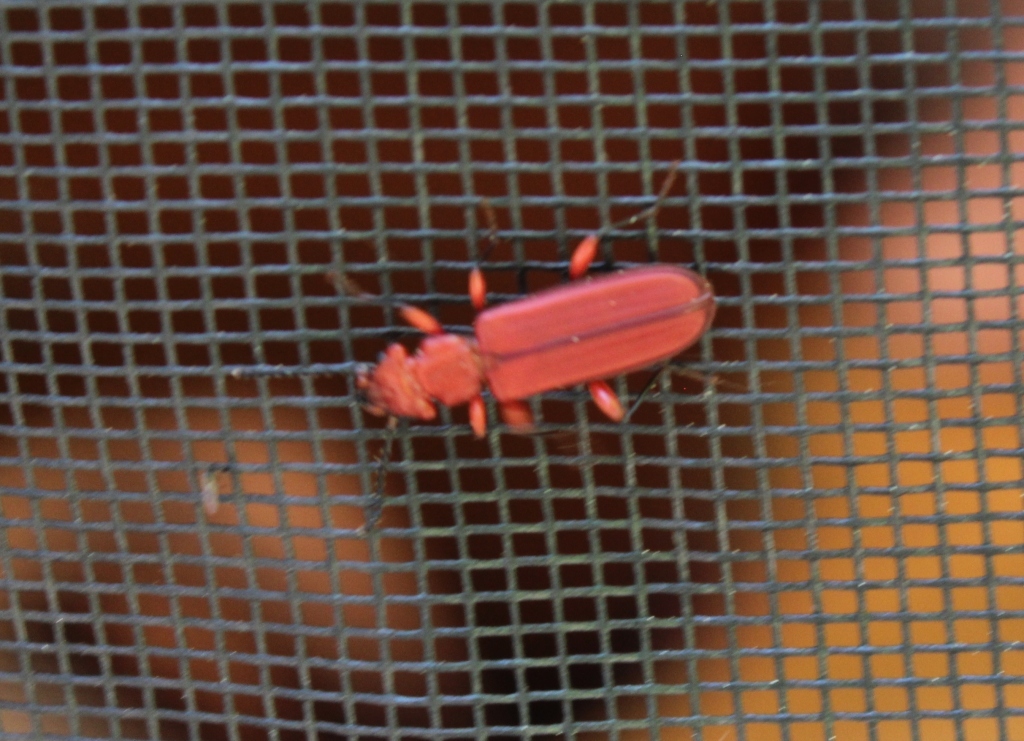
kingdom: Animalia
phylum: Arthropoda
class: Insecta
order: Coleoptera
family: Cucujidae
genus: Cucujus
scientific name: Cucujus clavipes
